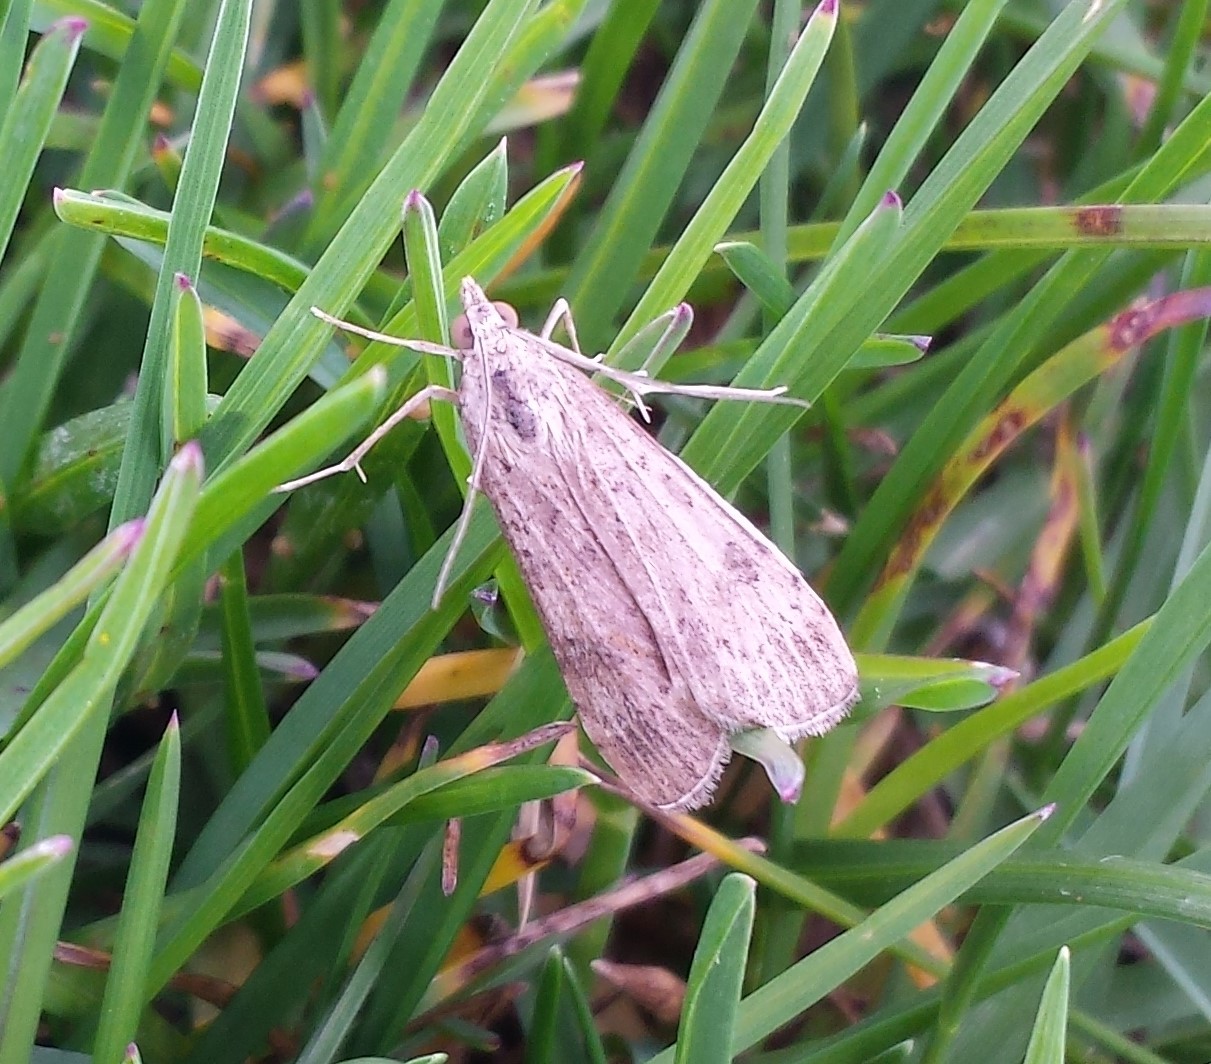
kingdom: Animalia
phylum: Arthropoda
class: Insecta
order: Lepidoptera
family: Crambidae
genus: Nomophila
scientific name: Nomophila nearctica
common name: American rush veneer
